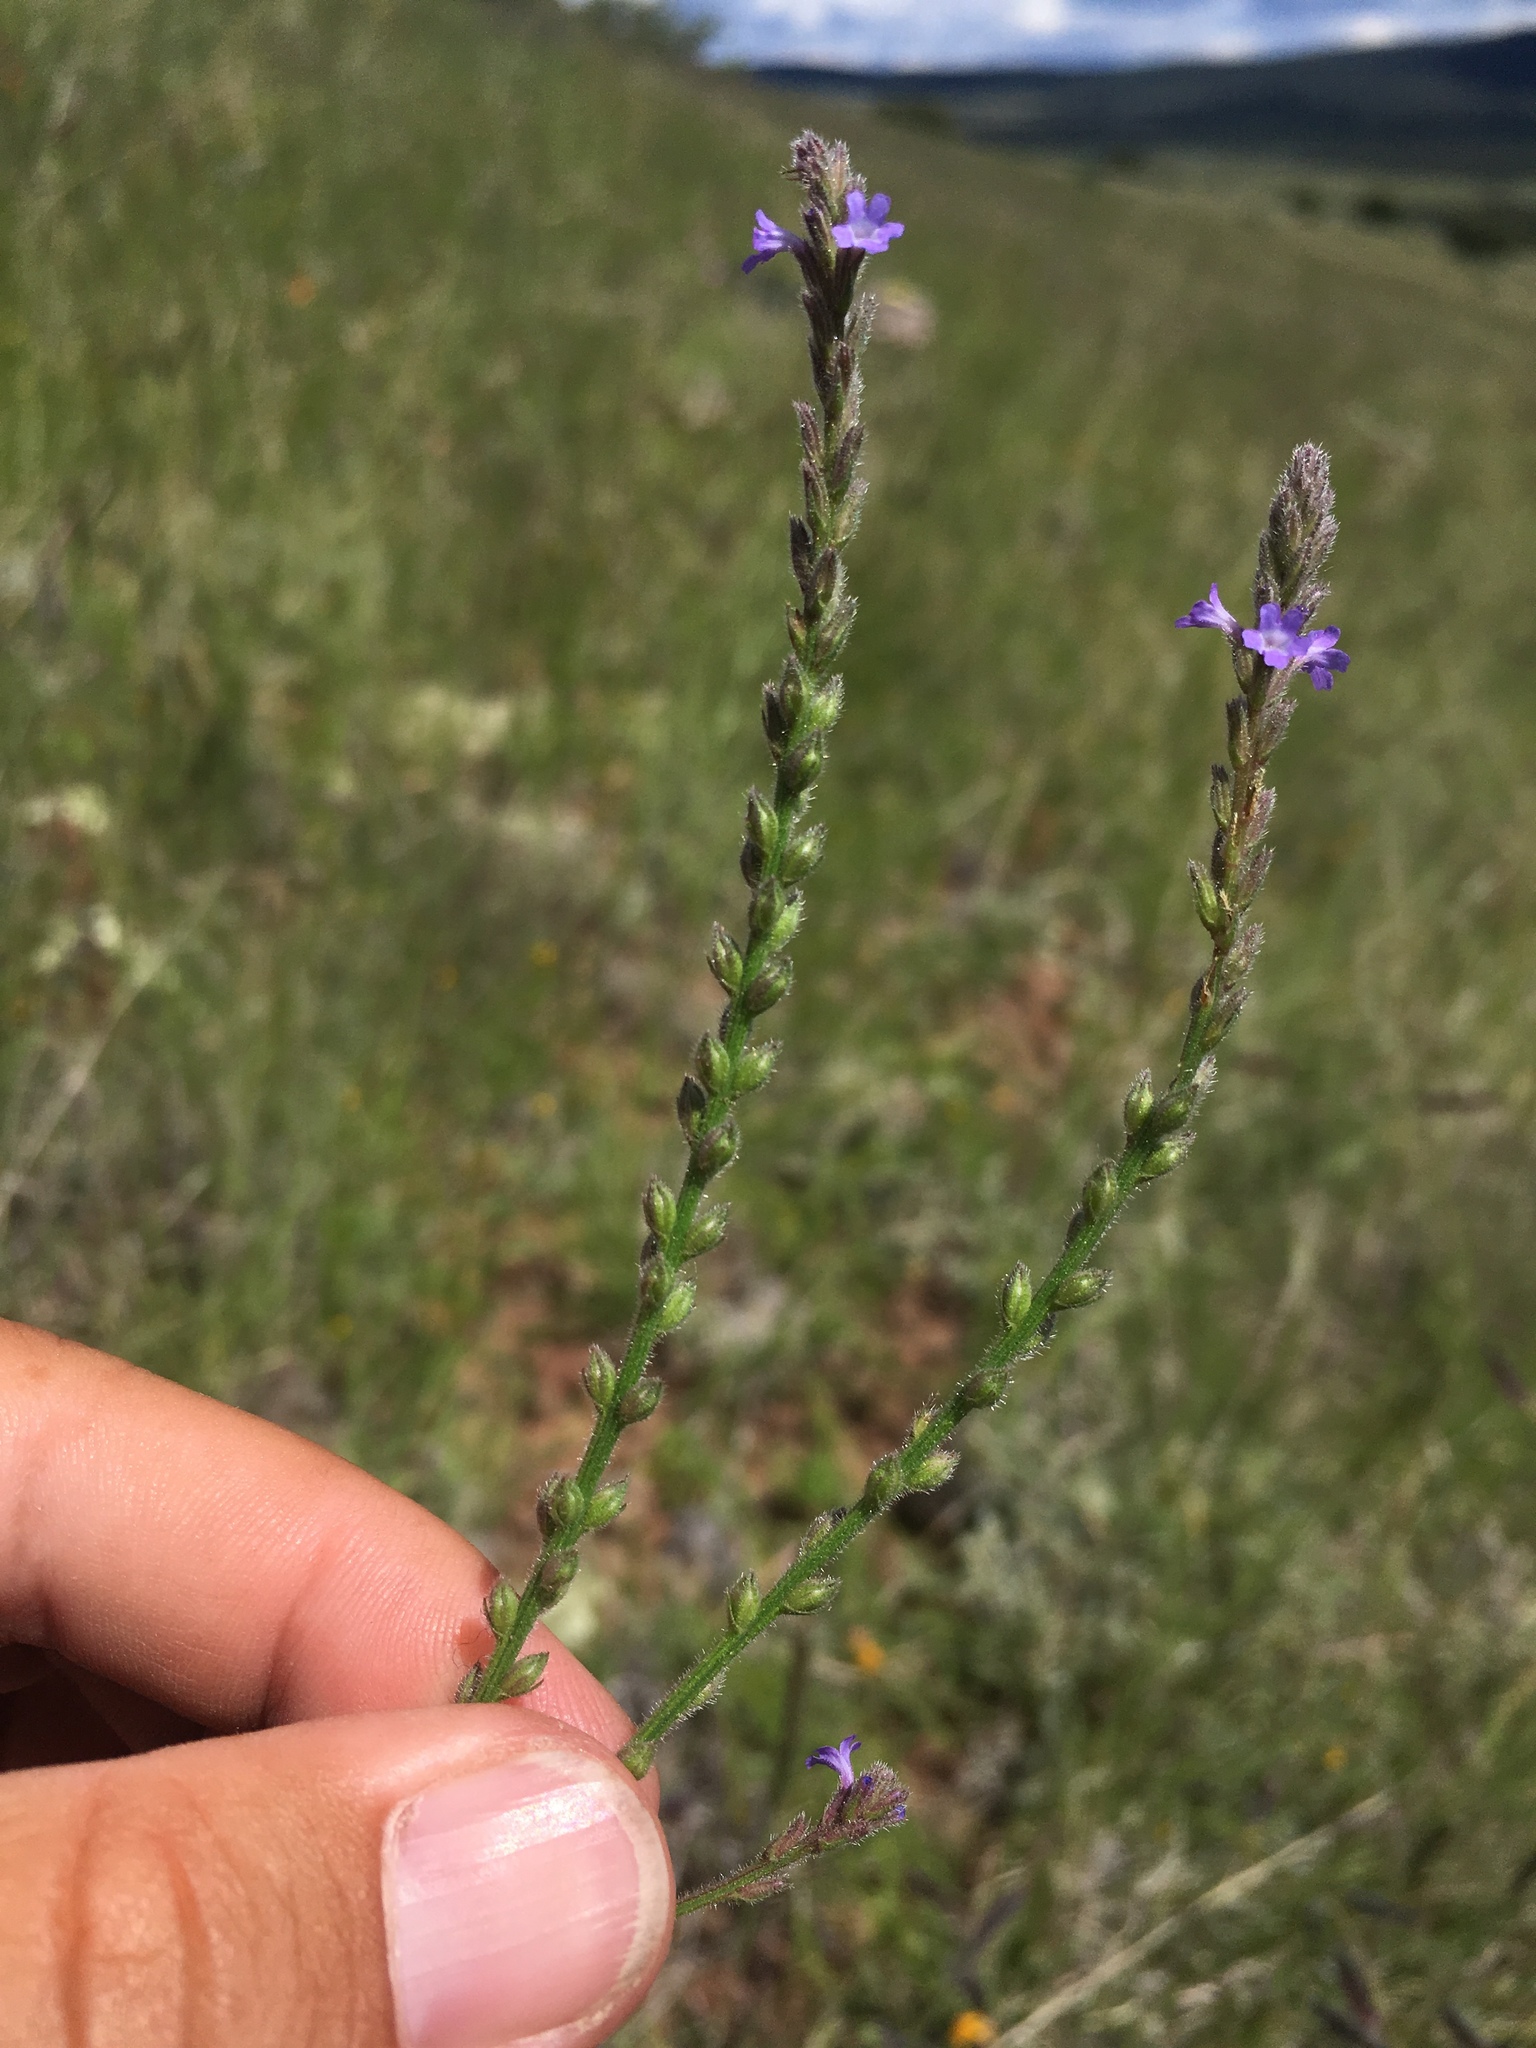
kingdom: Plantae
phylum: Tracheophyta
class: Magnoliopsida
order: Lamiales
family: Verbenaceae
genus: Verbena
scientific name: Verbena neomexicana
